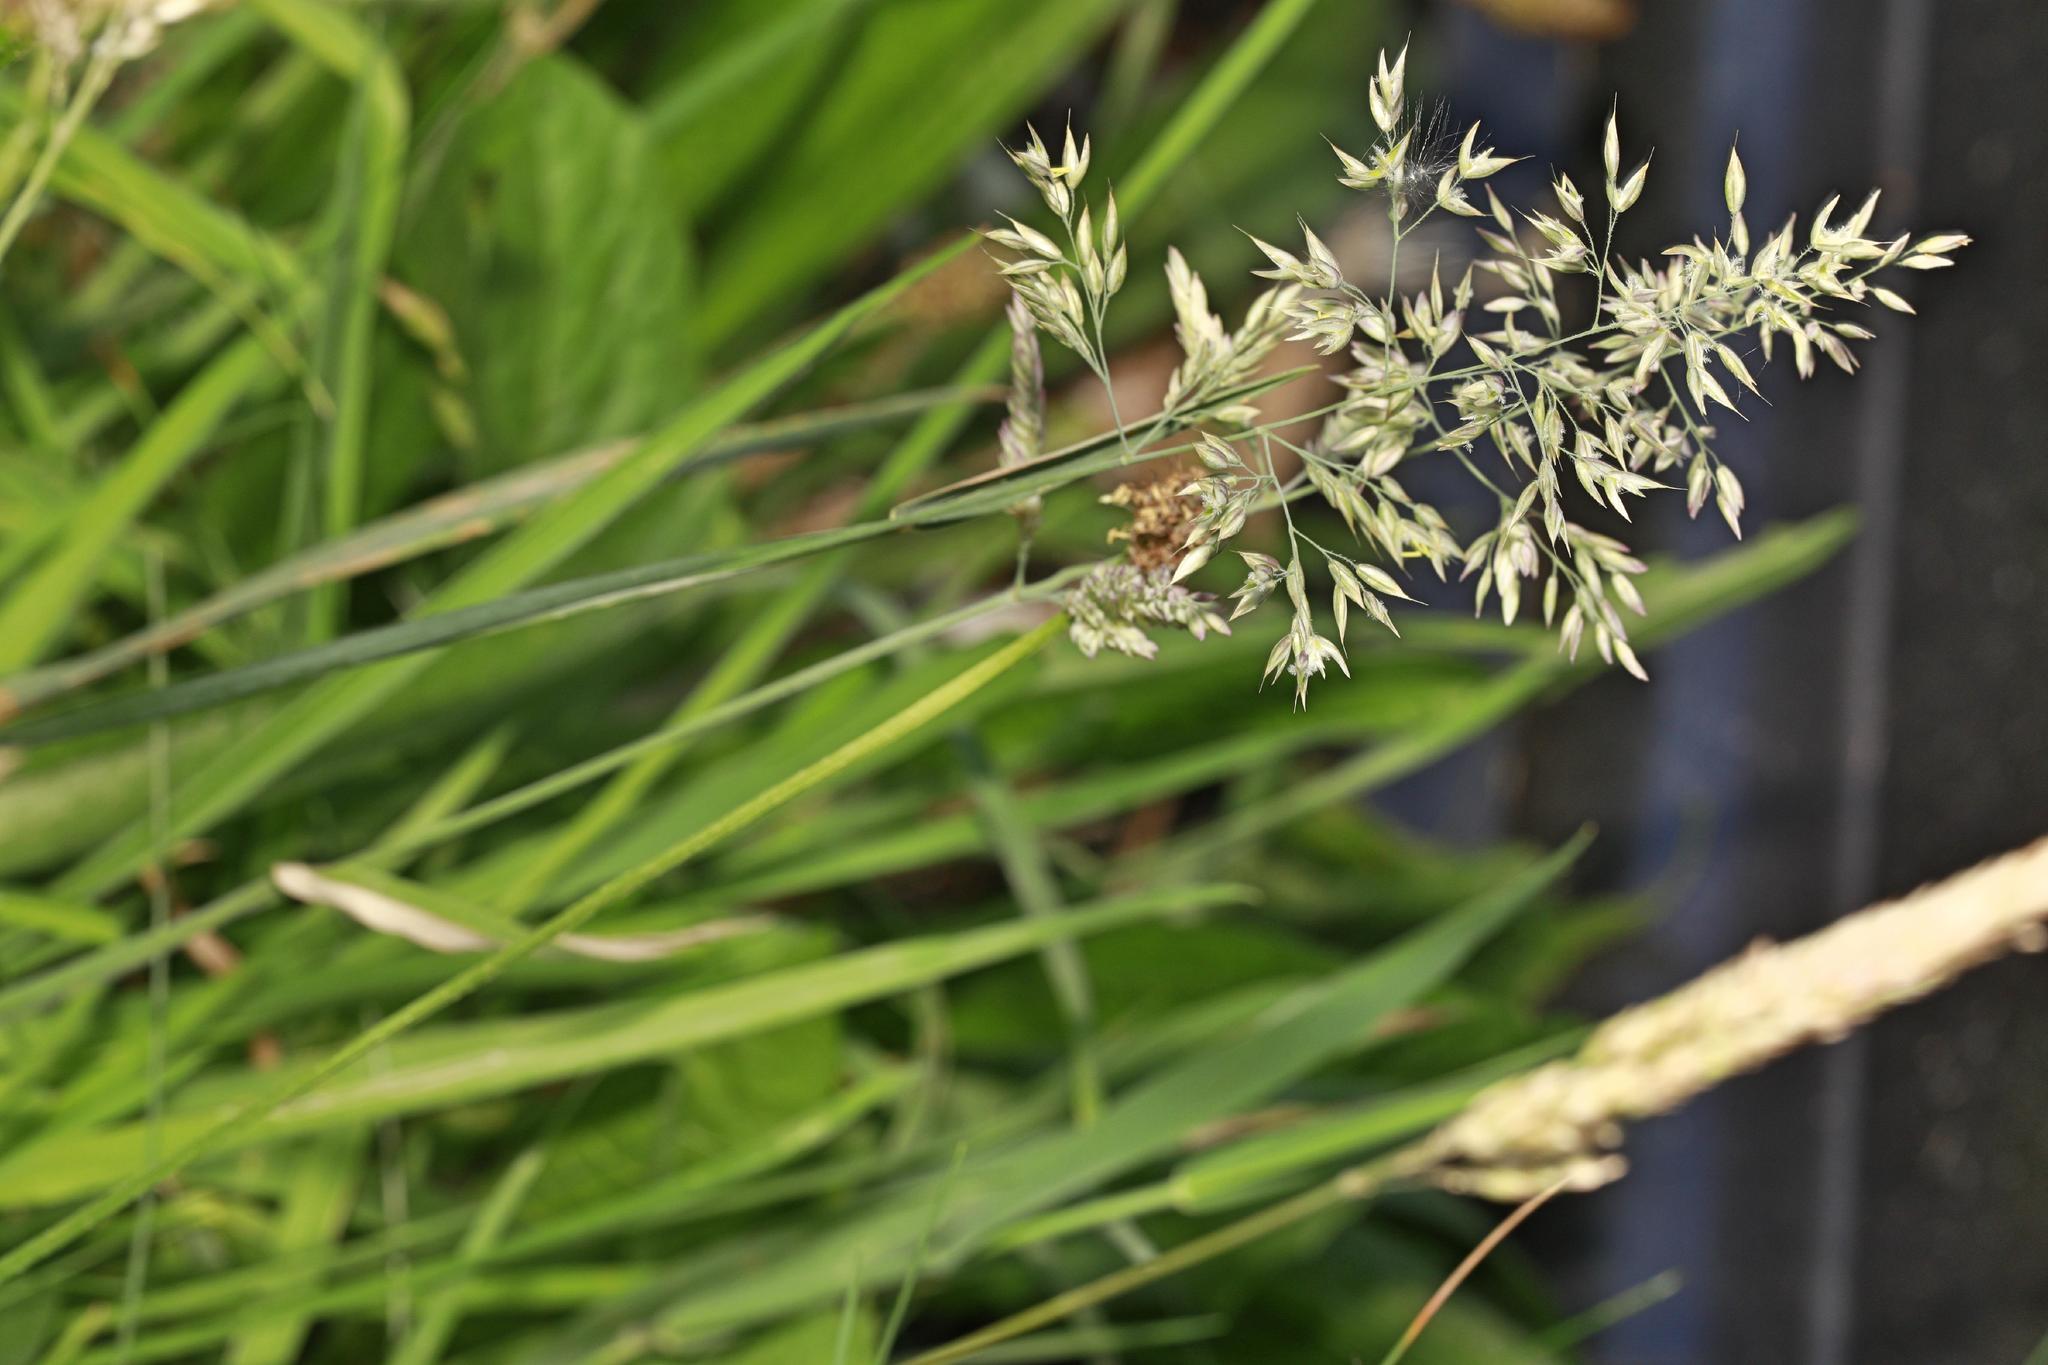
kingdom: Plantae
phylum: Tracheophyta
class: Liliopsida
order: Poales
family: Poaceae
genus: Holcus
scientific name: Holcus lanatus
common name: Yorkshire-fog
